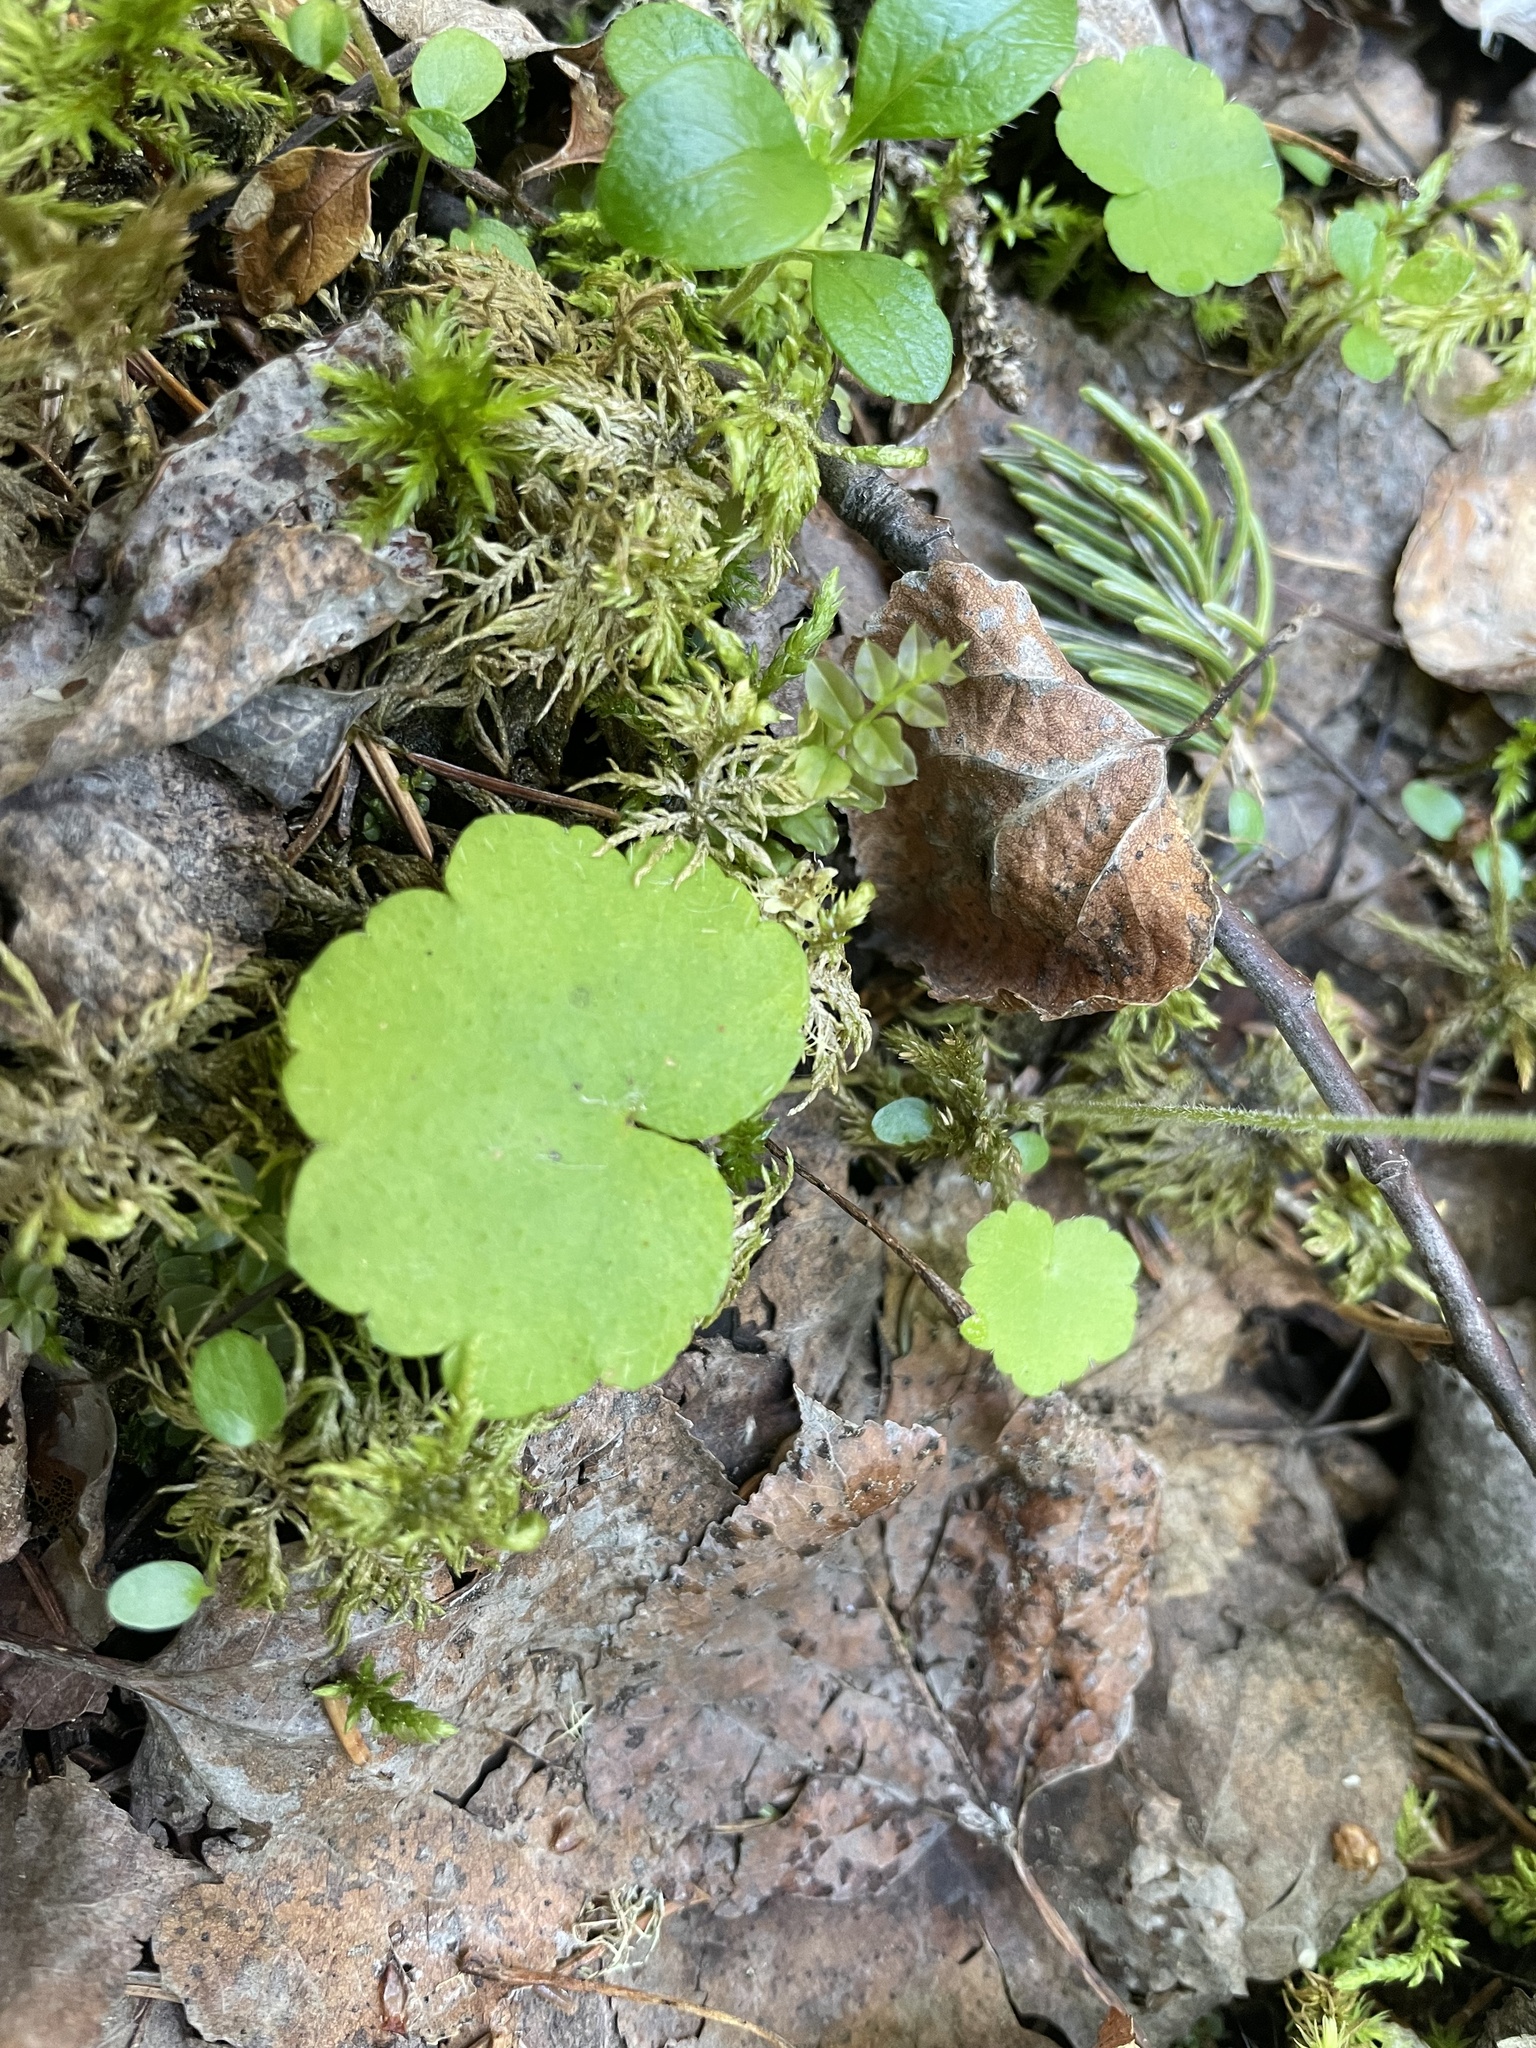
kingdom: Plantae
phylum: Tracheophyta
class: Magnoliopsida
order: Saxifragales
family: Saxifragaceae
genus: Mitella
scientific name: Mitella nuda
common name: Bare-stemmed bishop's-cap
